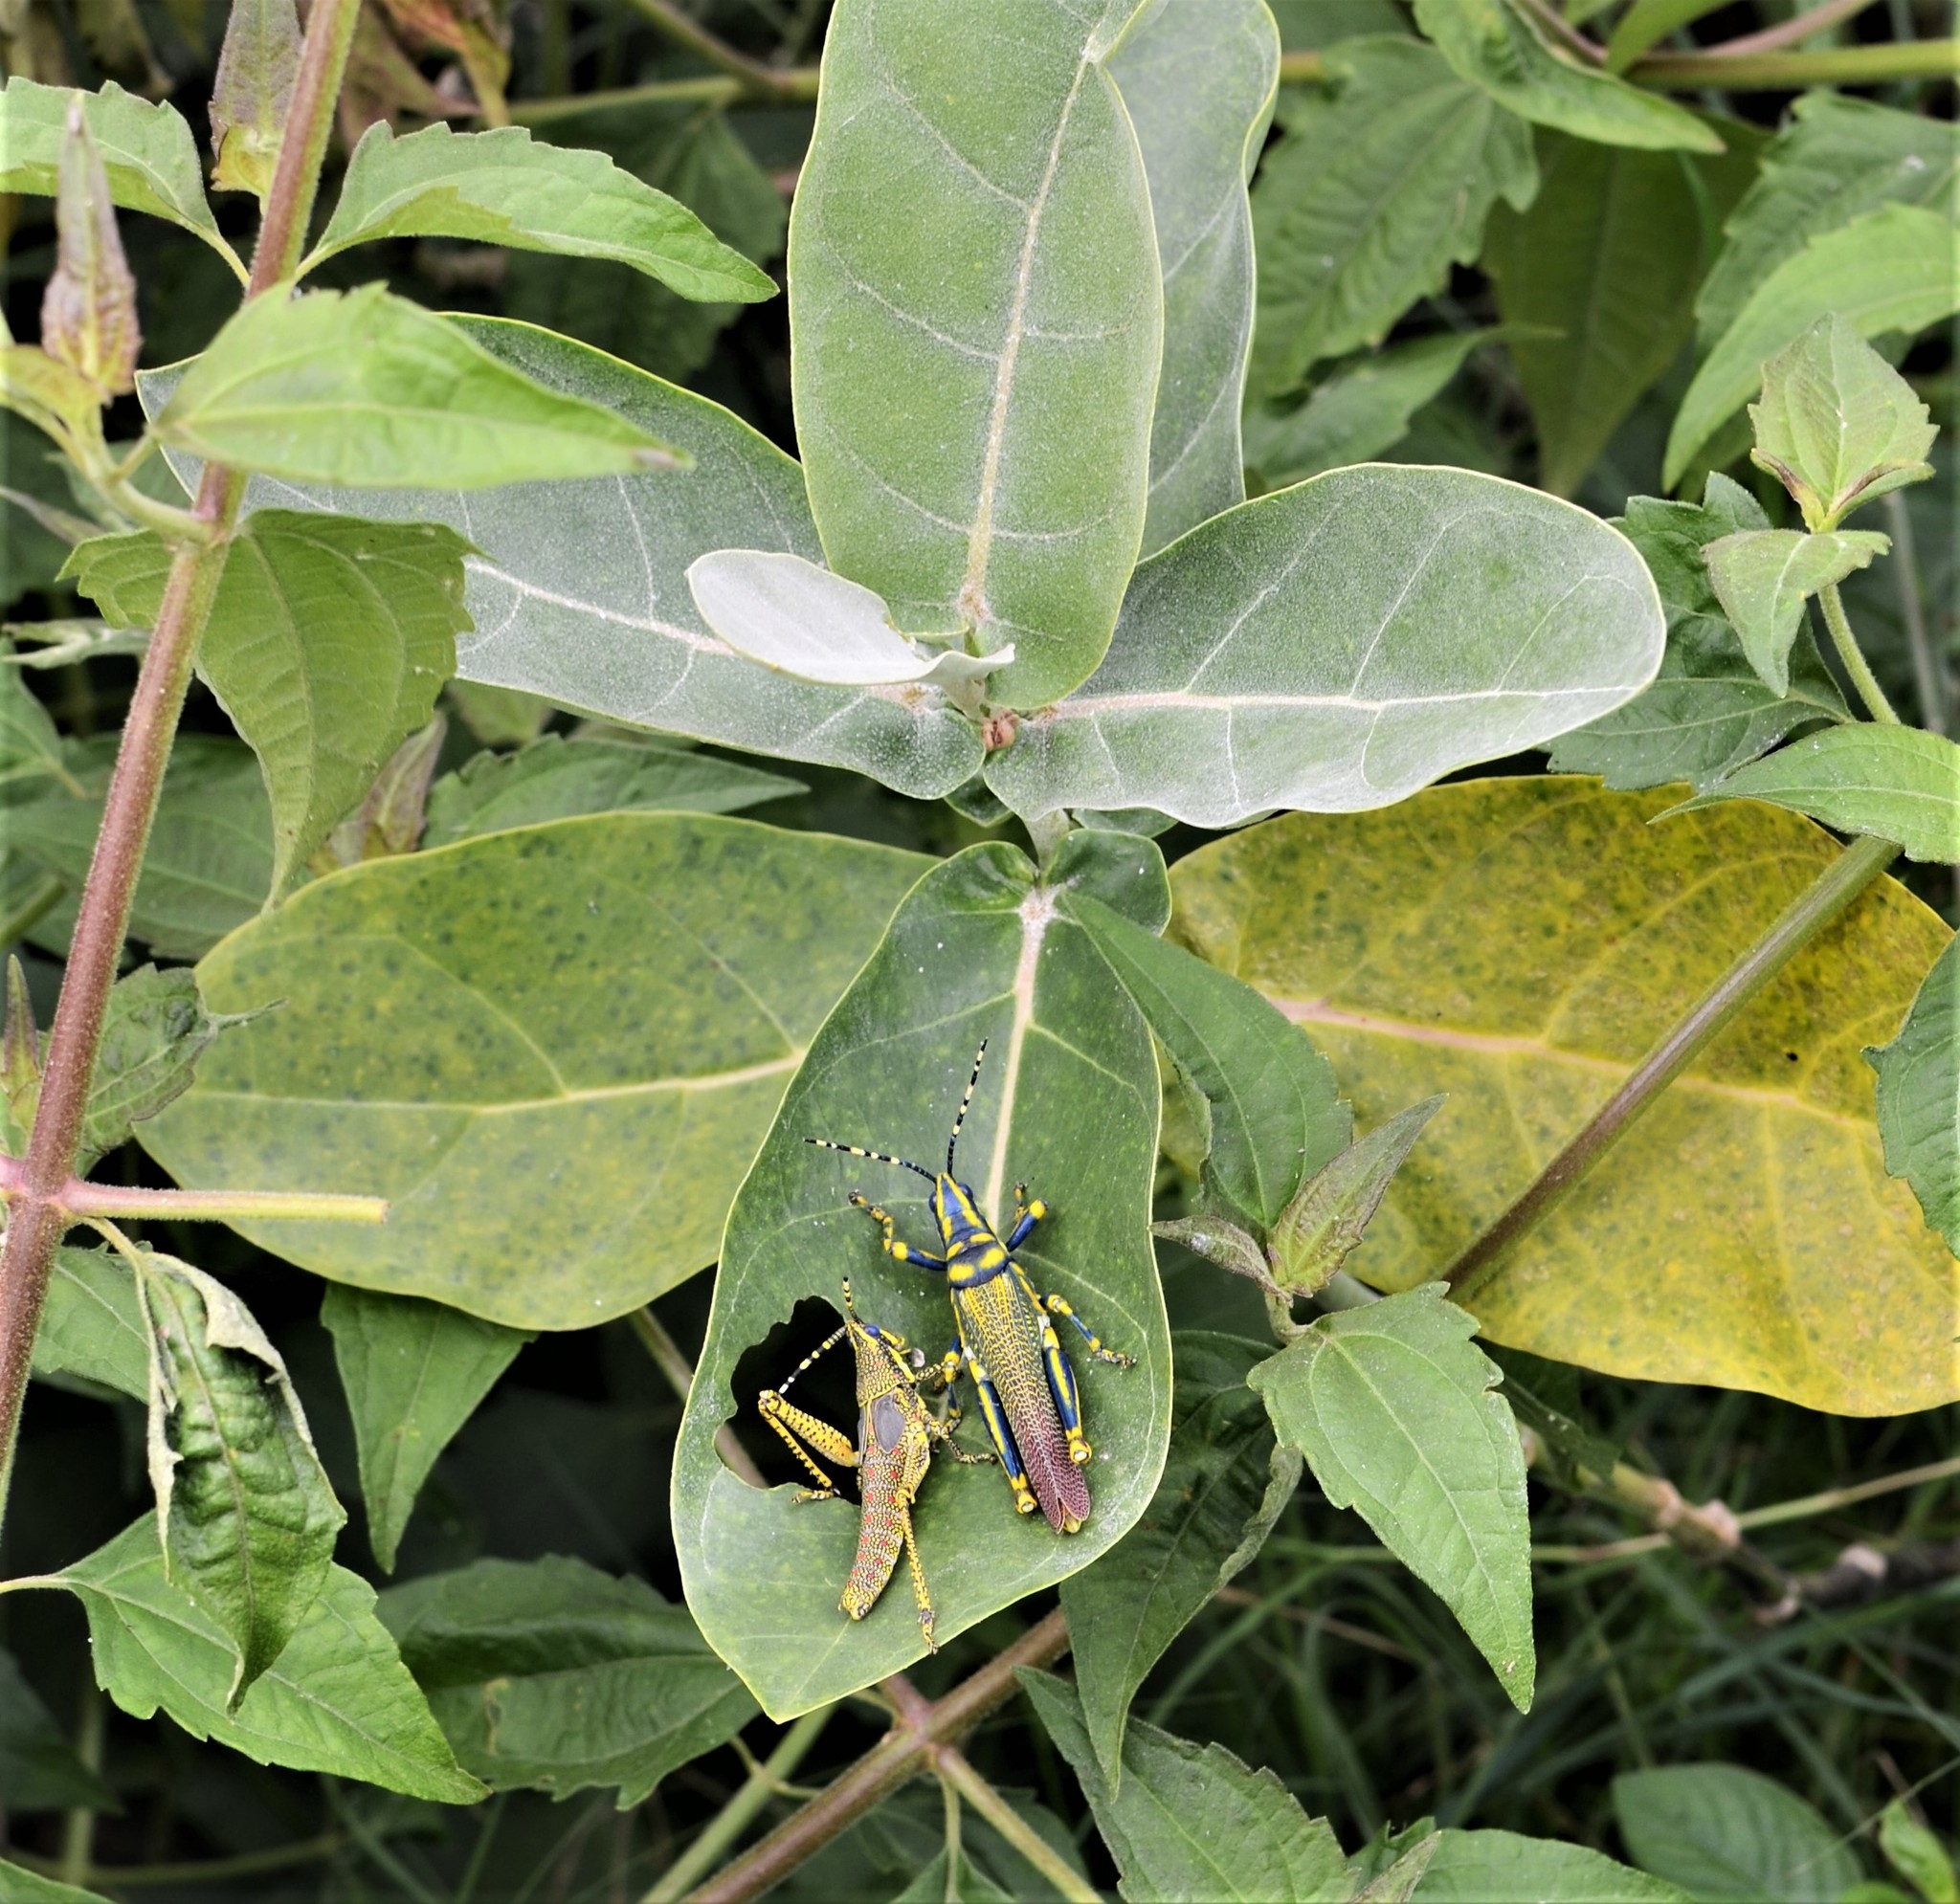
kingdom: Animalia
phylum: Arthropoda
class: Insecta
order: Orthoptera
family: Pyrgomorphidae
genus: Poekilocerus
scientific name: Poekilocerus pictus
